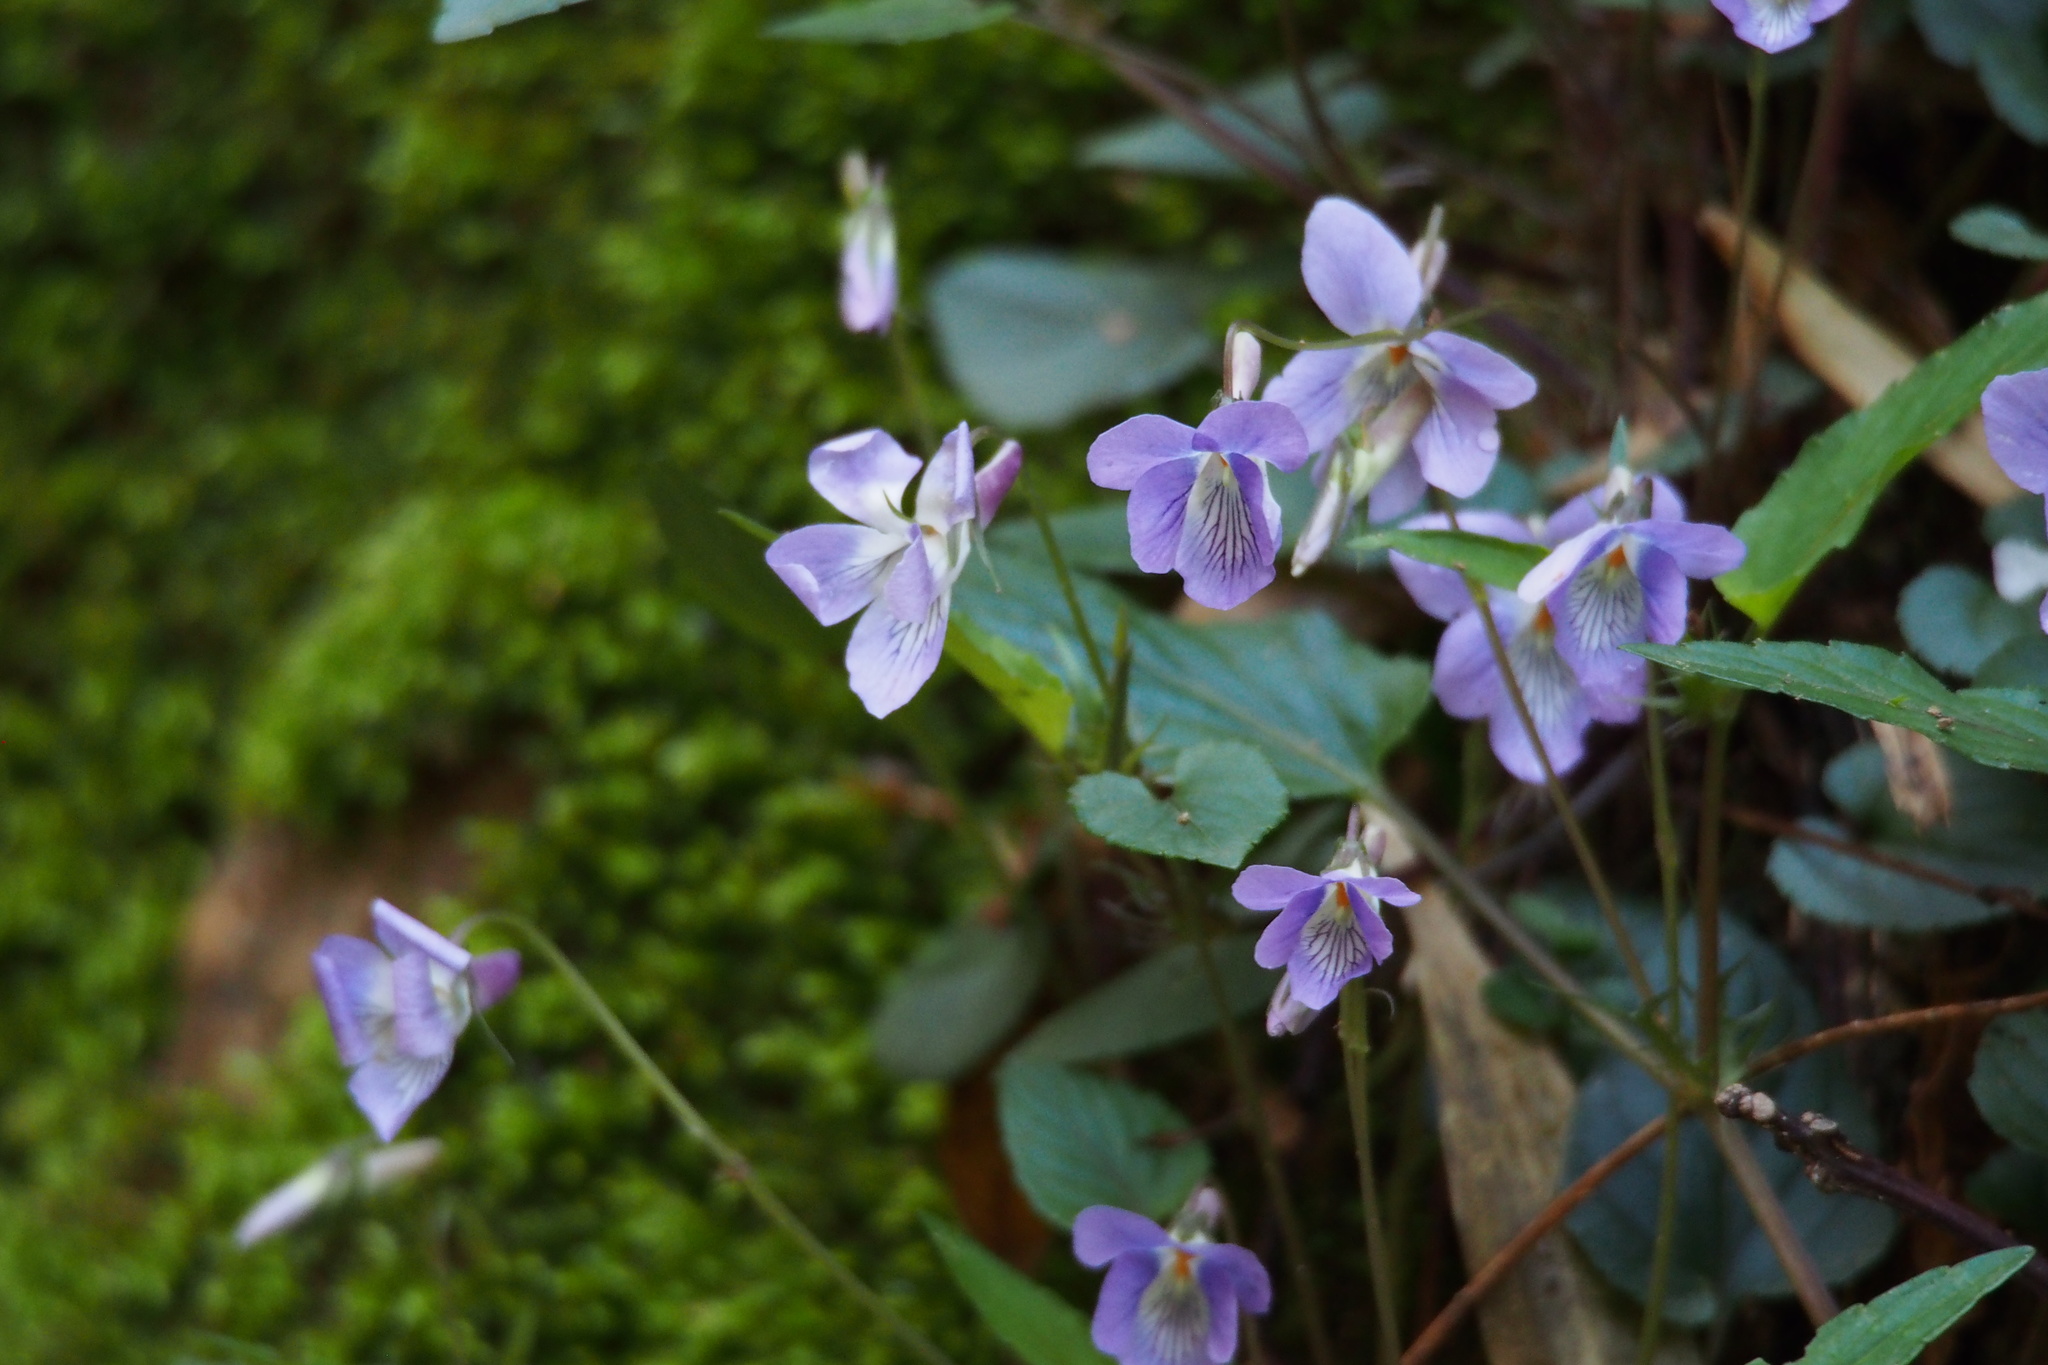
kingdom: Plantae
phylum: Tracheophyta
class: Magnoliopsida
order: Malpighiales
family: Violaceae
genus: Viola
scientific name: Viola ovatooblonga
